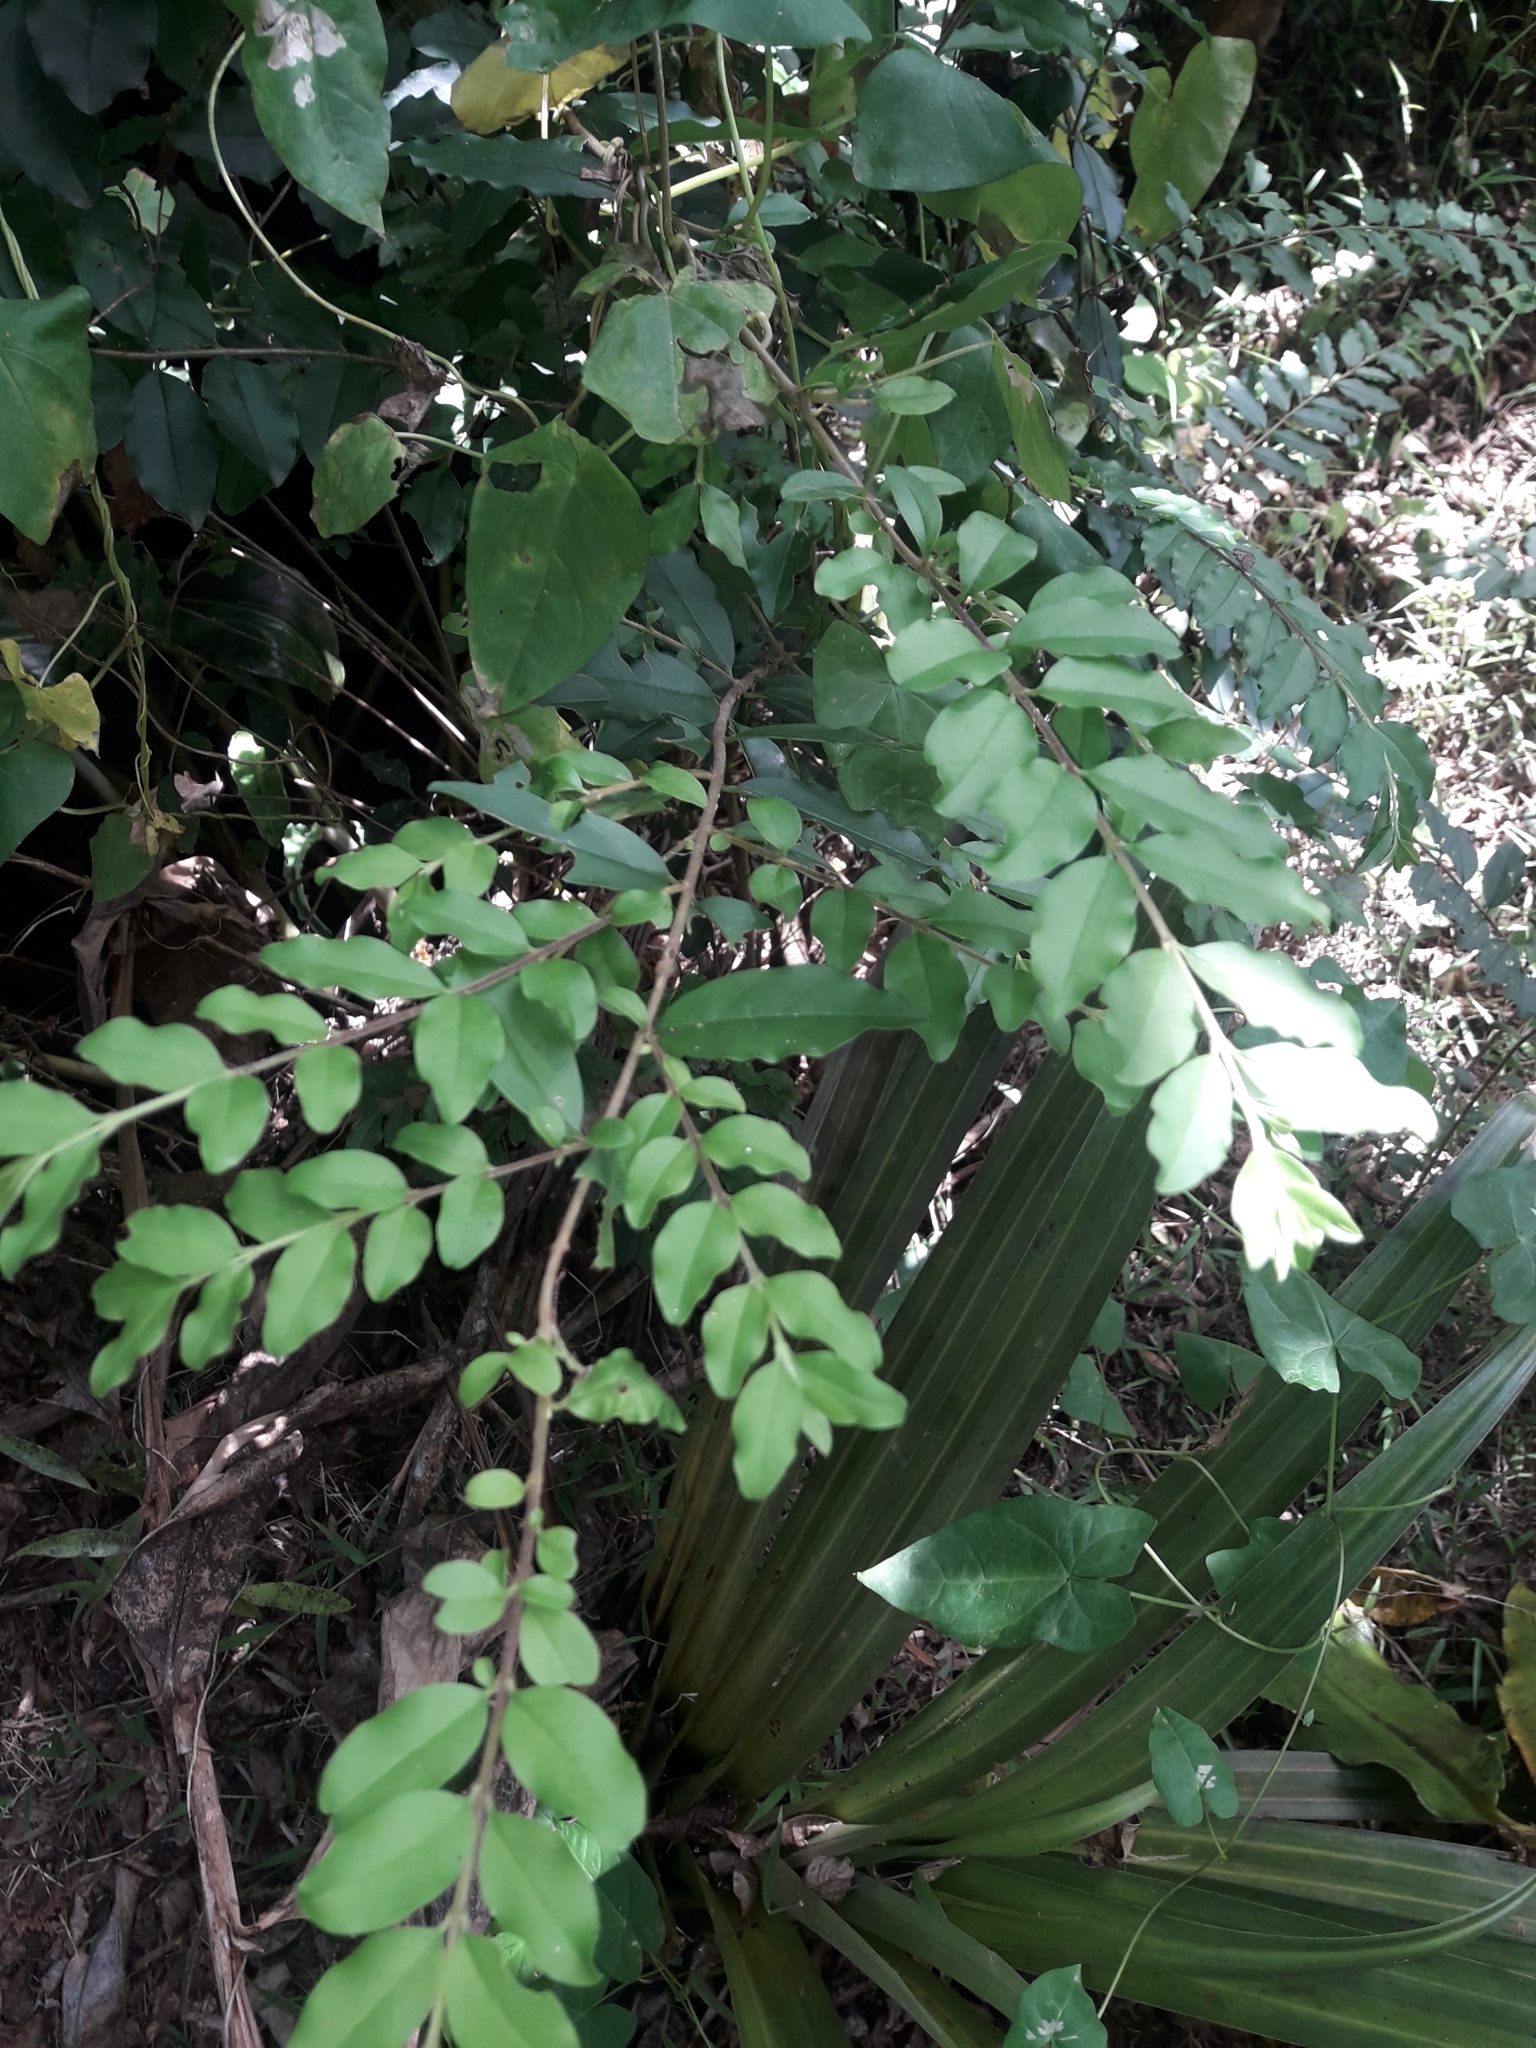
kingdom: Plantae
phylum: Tracheophyta
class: Magnoliopsida
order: Lamiales
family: Oleaceae
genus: Ligustrum
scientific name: Ligustrum sinense
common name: Chinese privet
